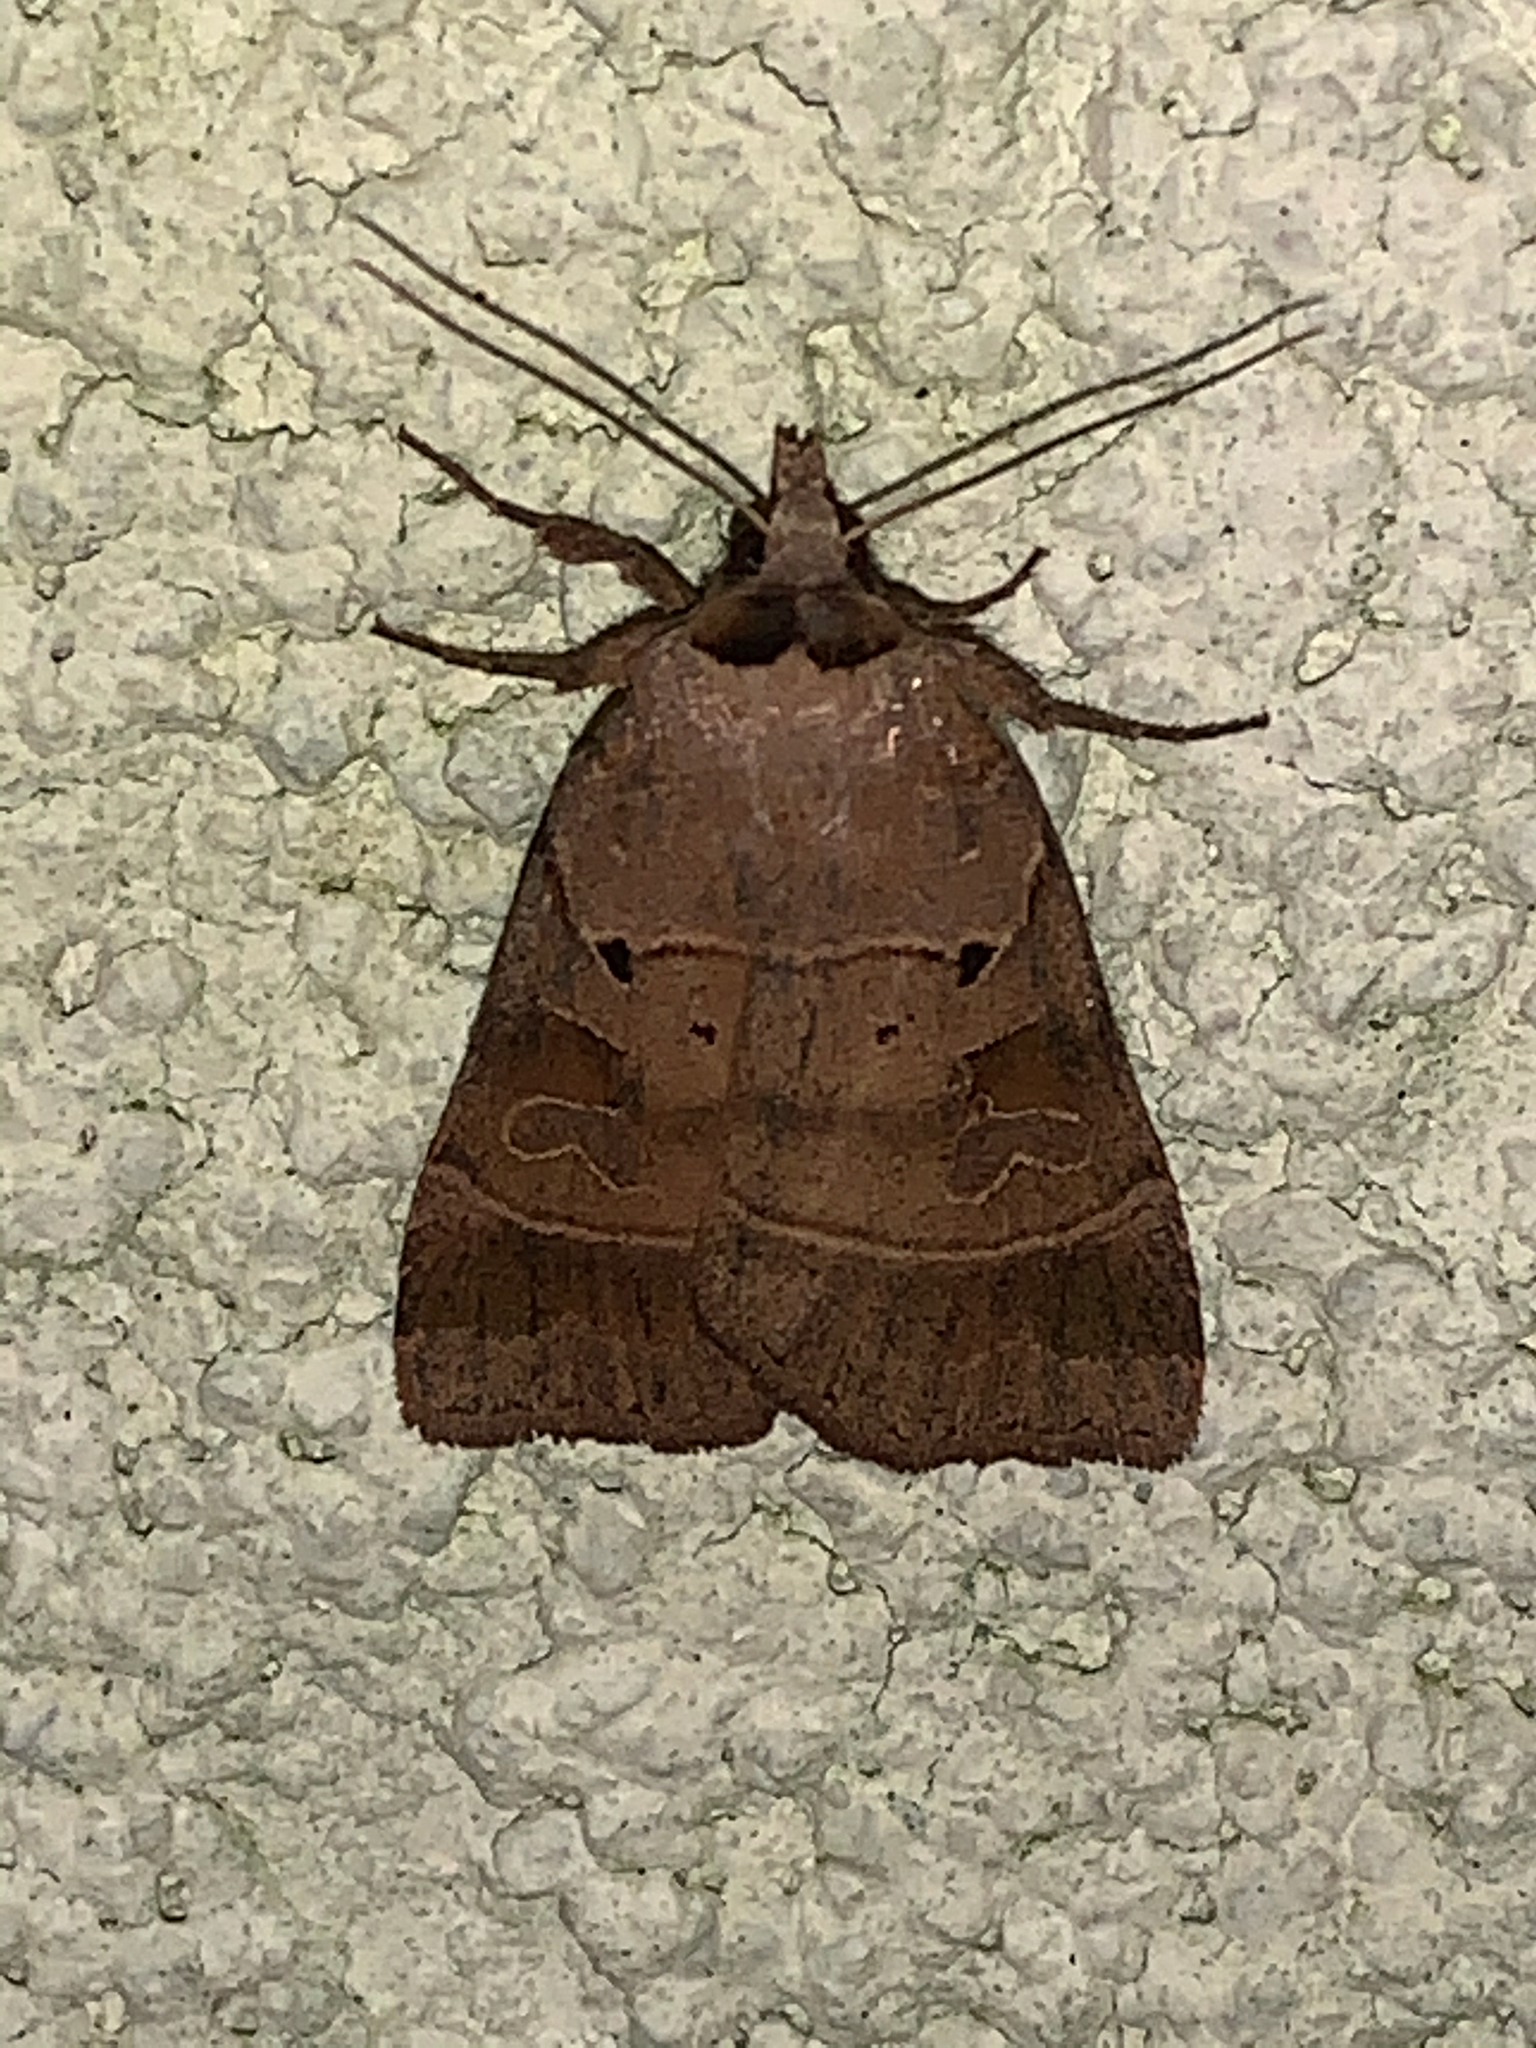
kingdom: Animalia
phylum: Arthropoda
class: Insecta
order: Lepidoptera
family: Noctuidae
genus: Agnorisma
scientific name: Agnorisma badinodis
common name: Pale-banded dart
